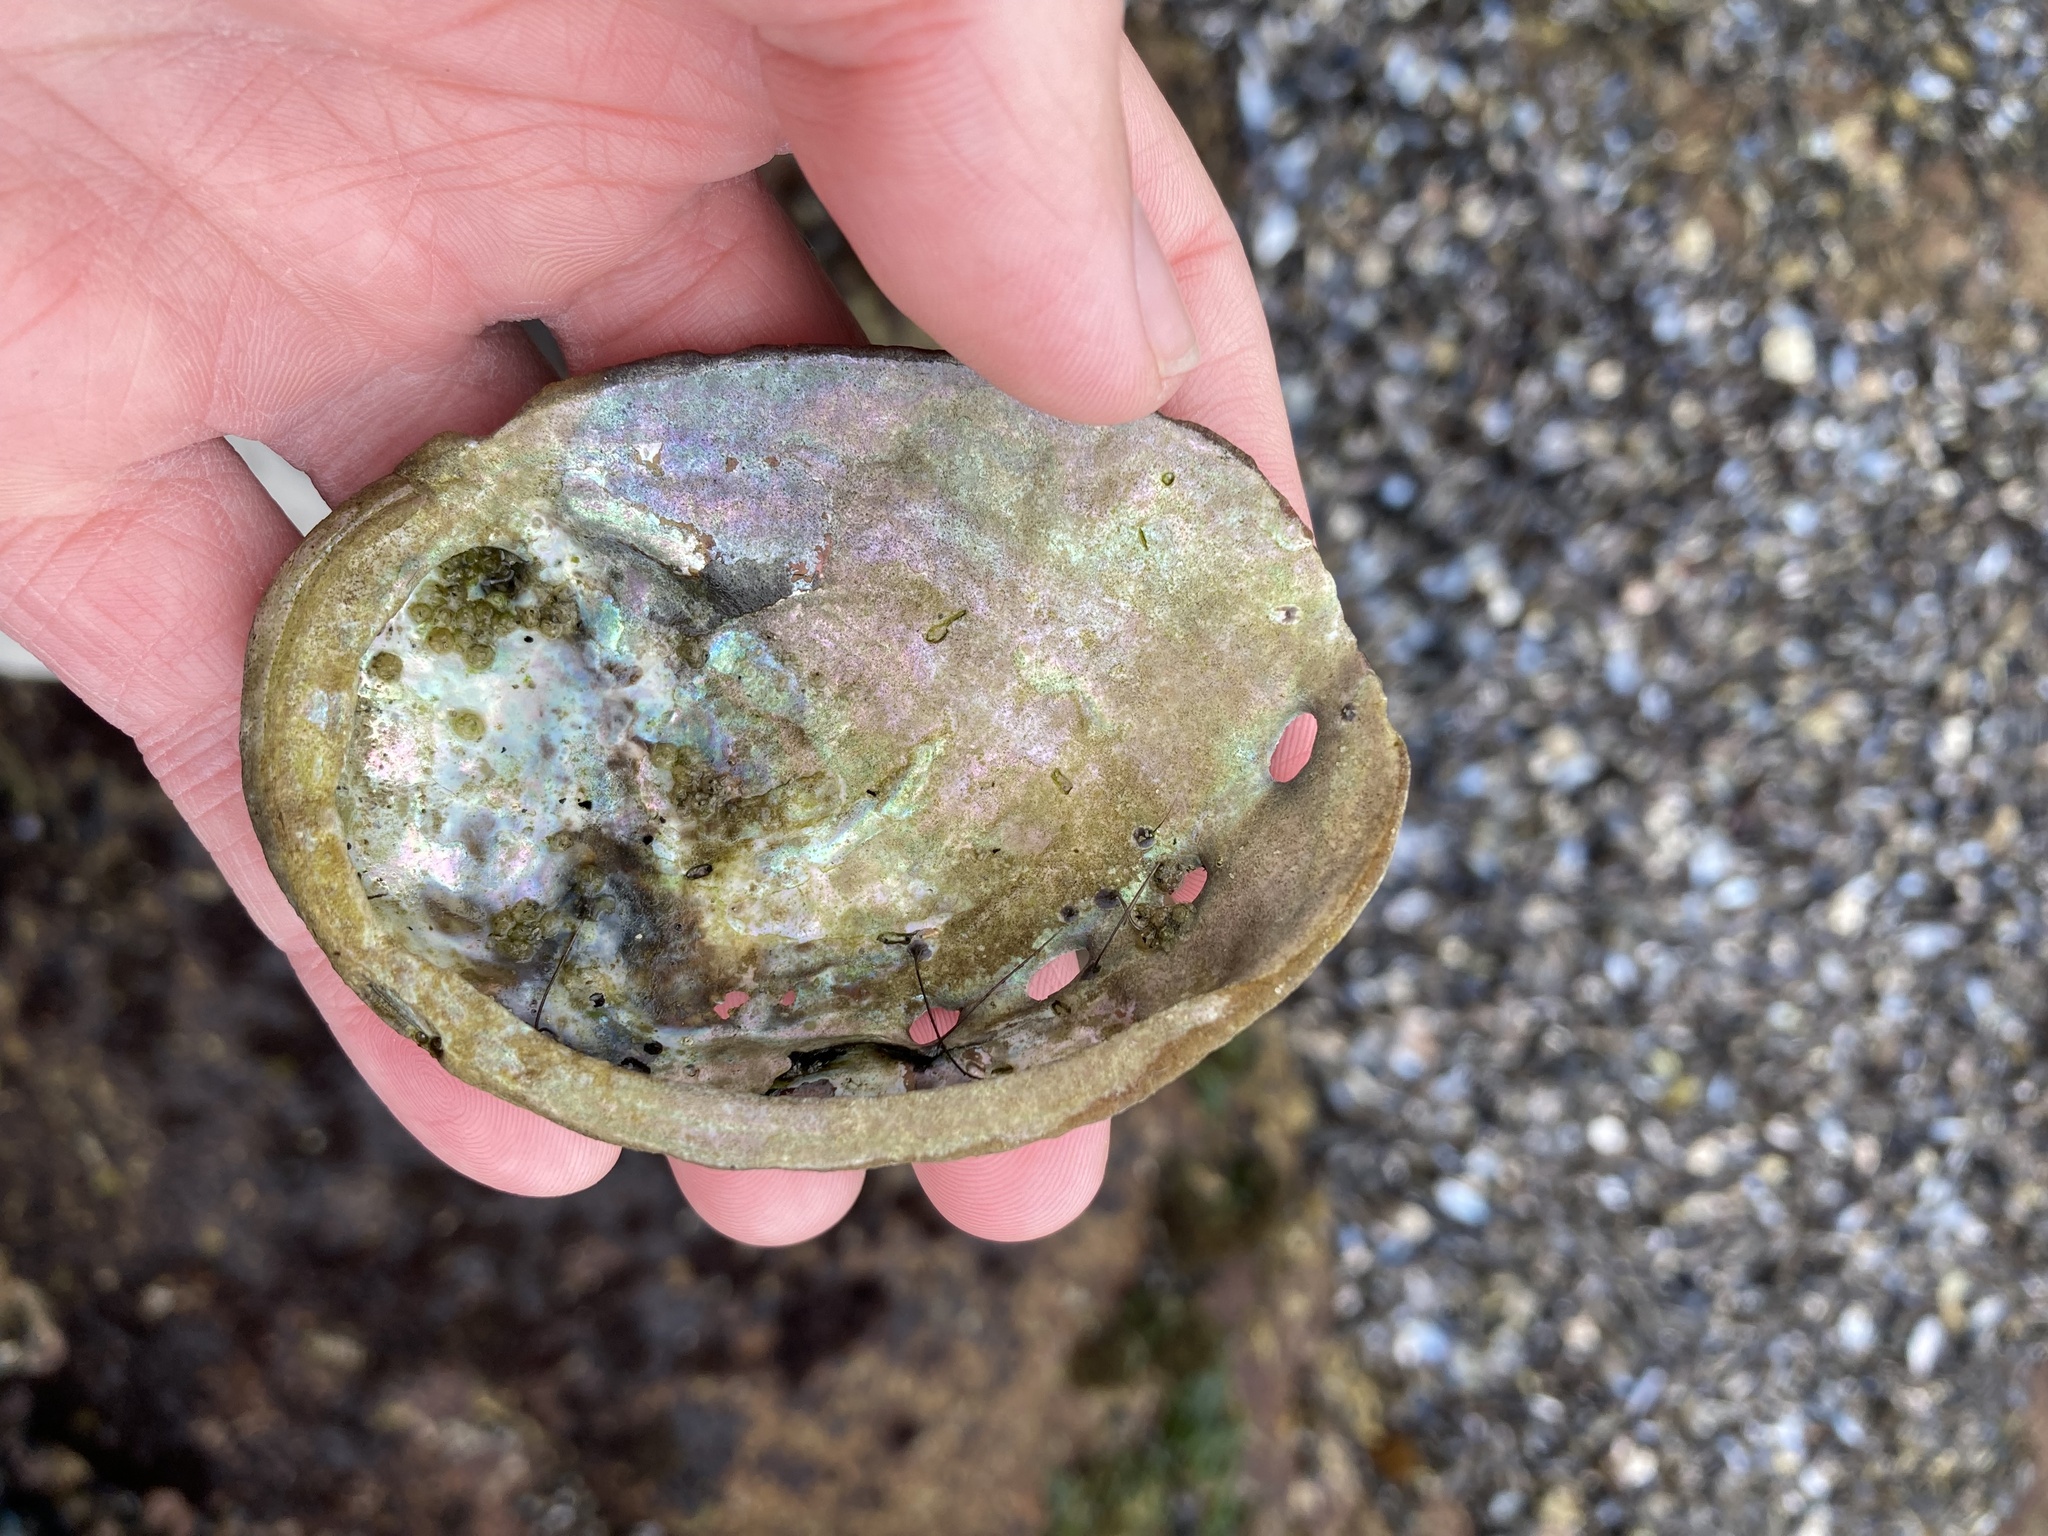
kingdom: Animalia
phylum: Mollusca
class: Gastropoda
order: Lepetellida
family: Haliotidae
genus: Haliotis
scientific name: Haliotis rufescens
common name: Red abalone
